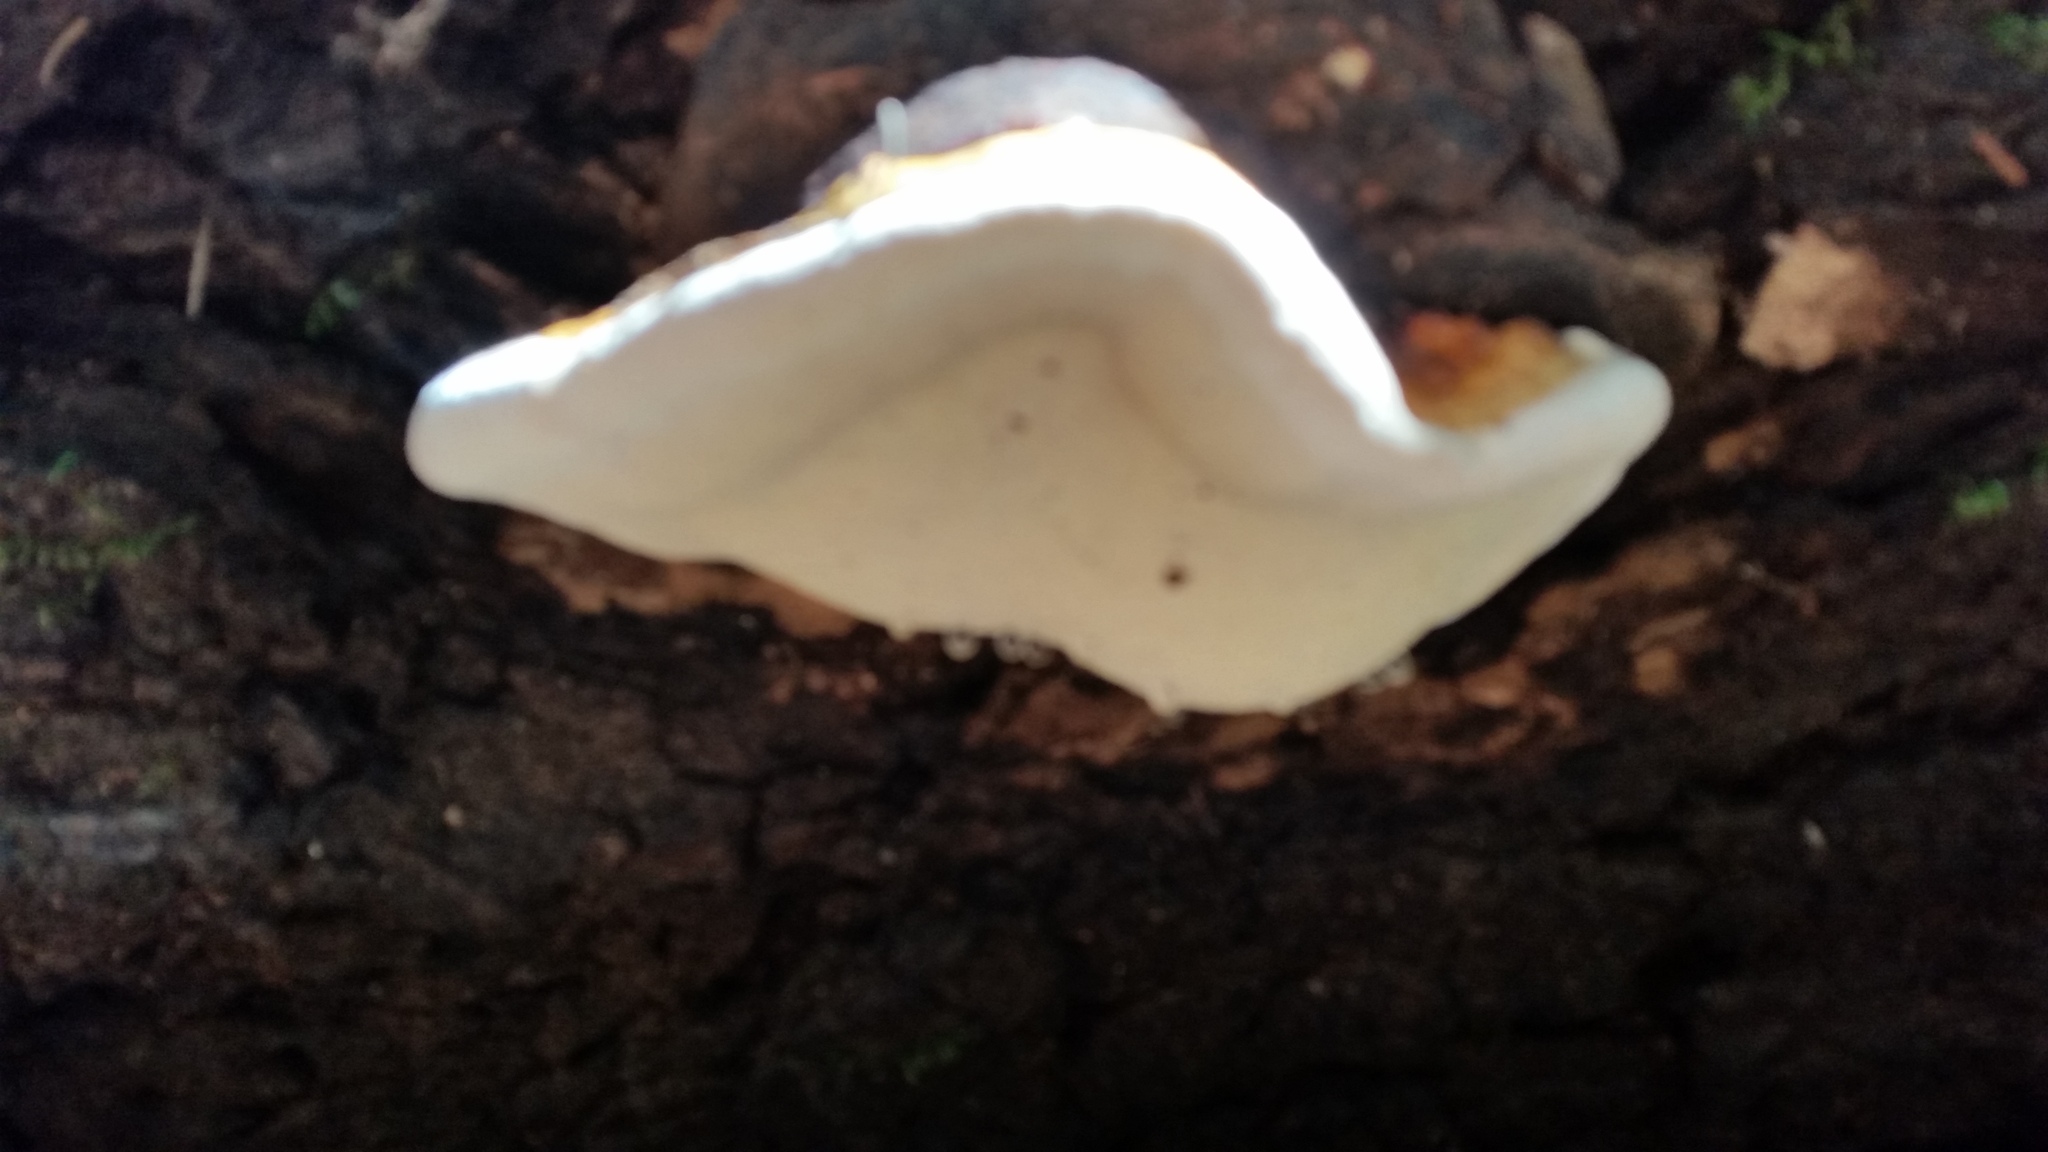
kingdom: Fungi
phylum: Basidiomycota
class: Agaricomycetes
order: Polyporales
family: Fomitopsidaceae
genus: Fomitopsis
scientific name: Fomitopsis mounceae
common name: Northern red belt
